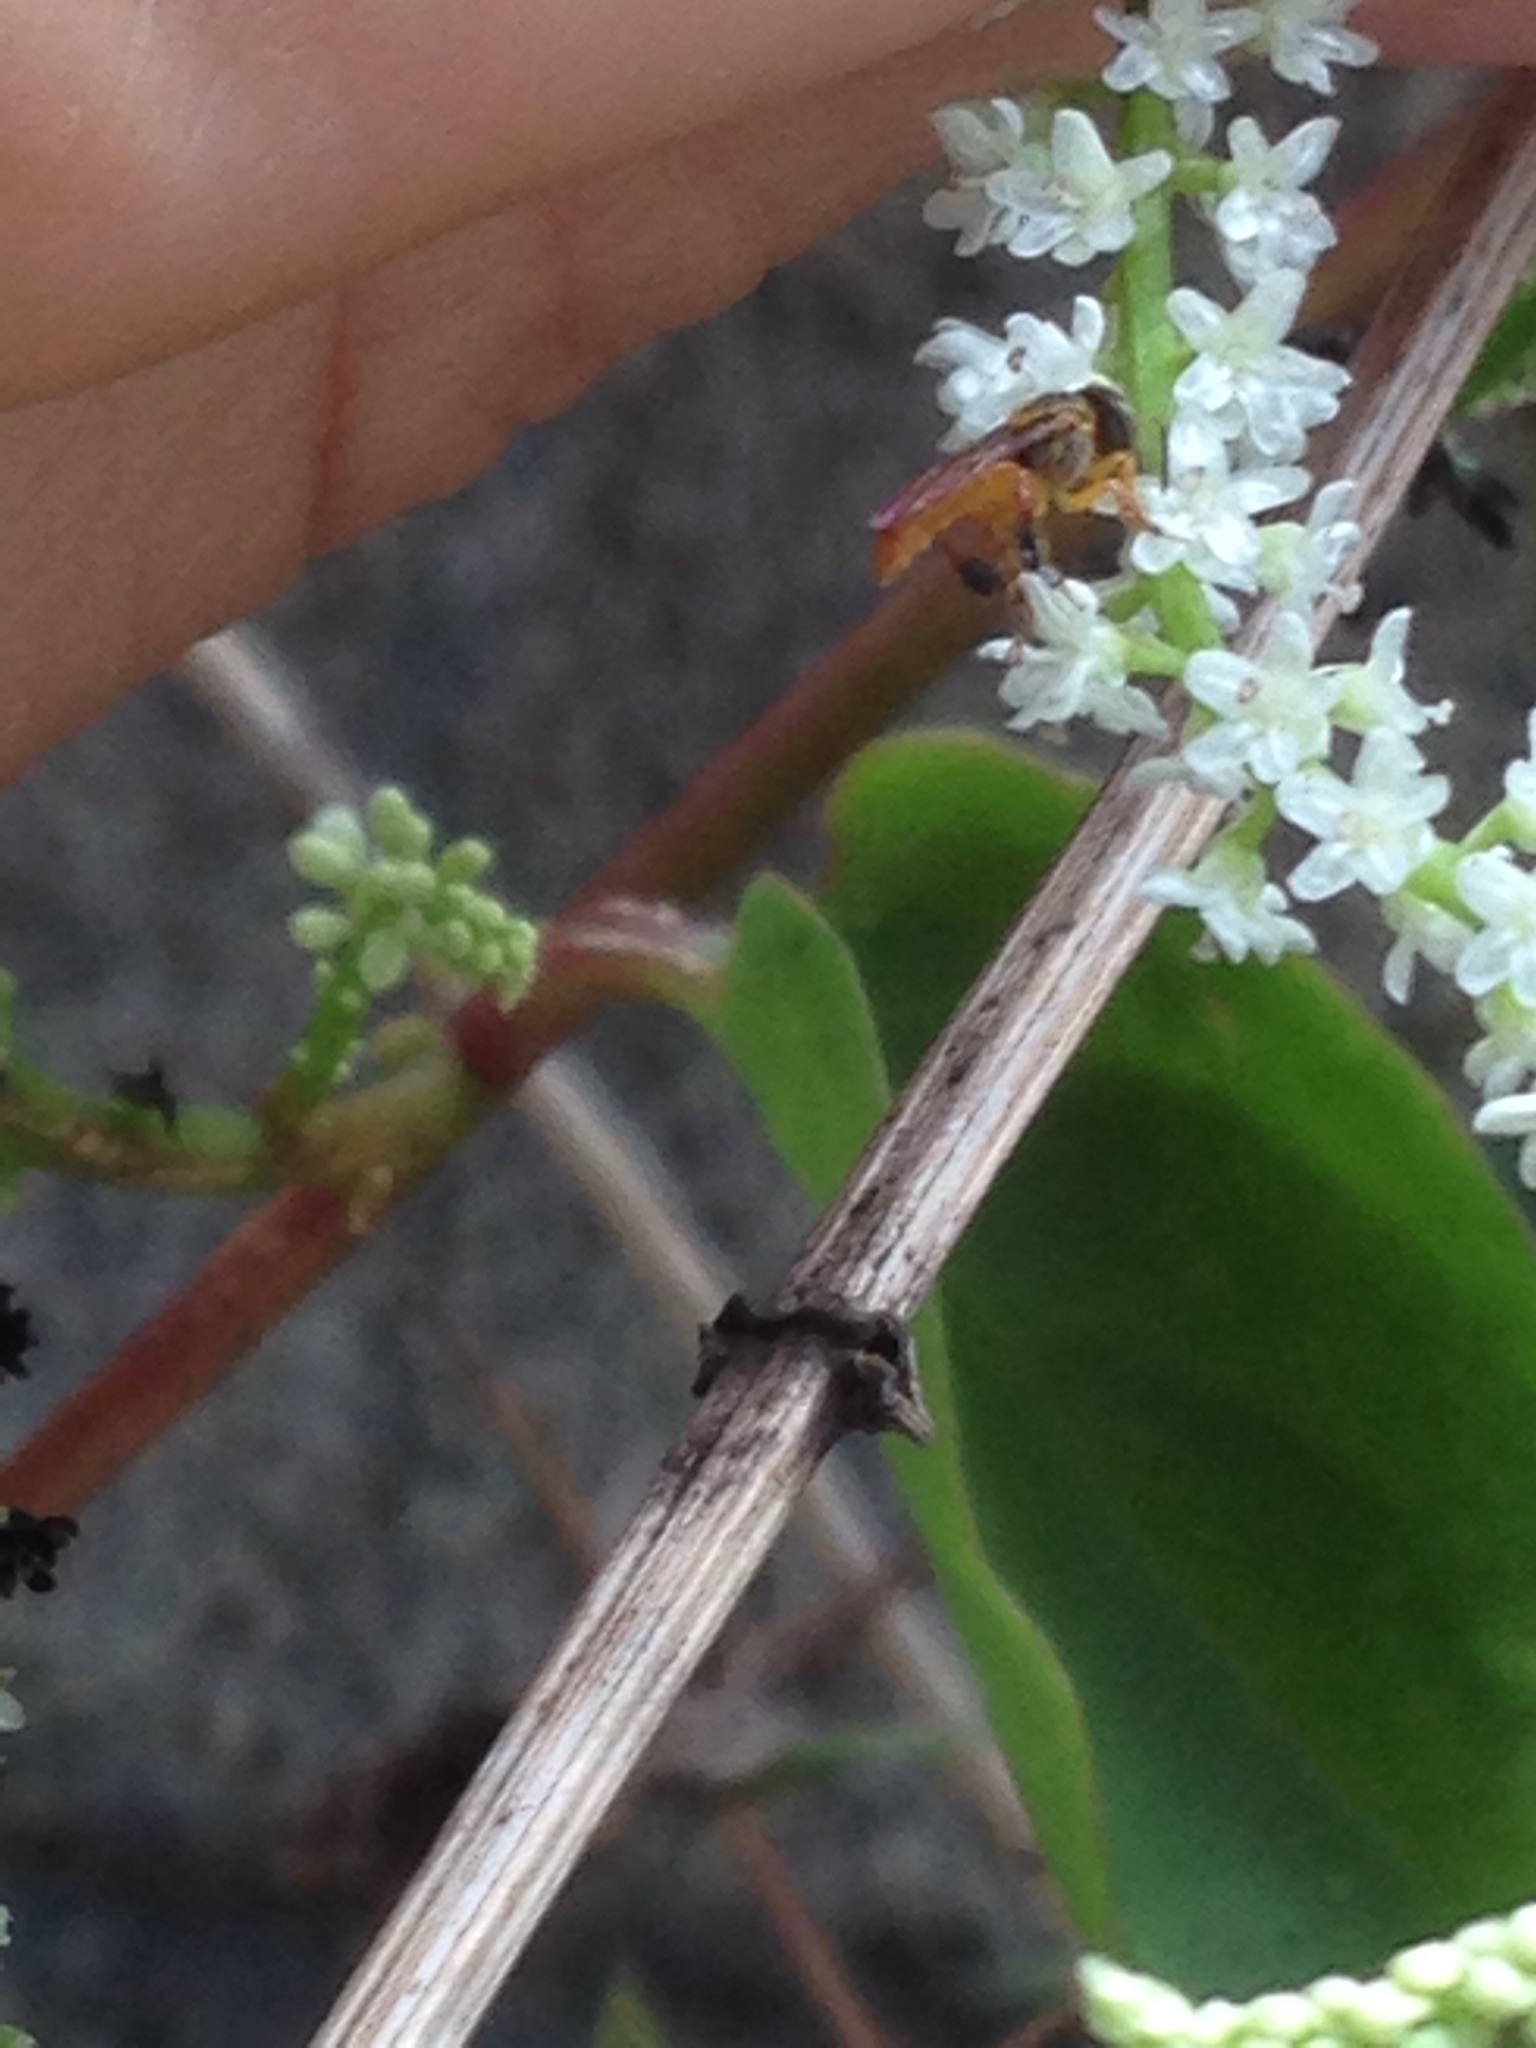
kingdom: Animalia
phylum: Arthropoda
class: Insecta
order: Hymenoptera
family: Apidae
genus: Tetragonisca
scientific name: Tetragonisca angustula
